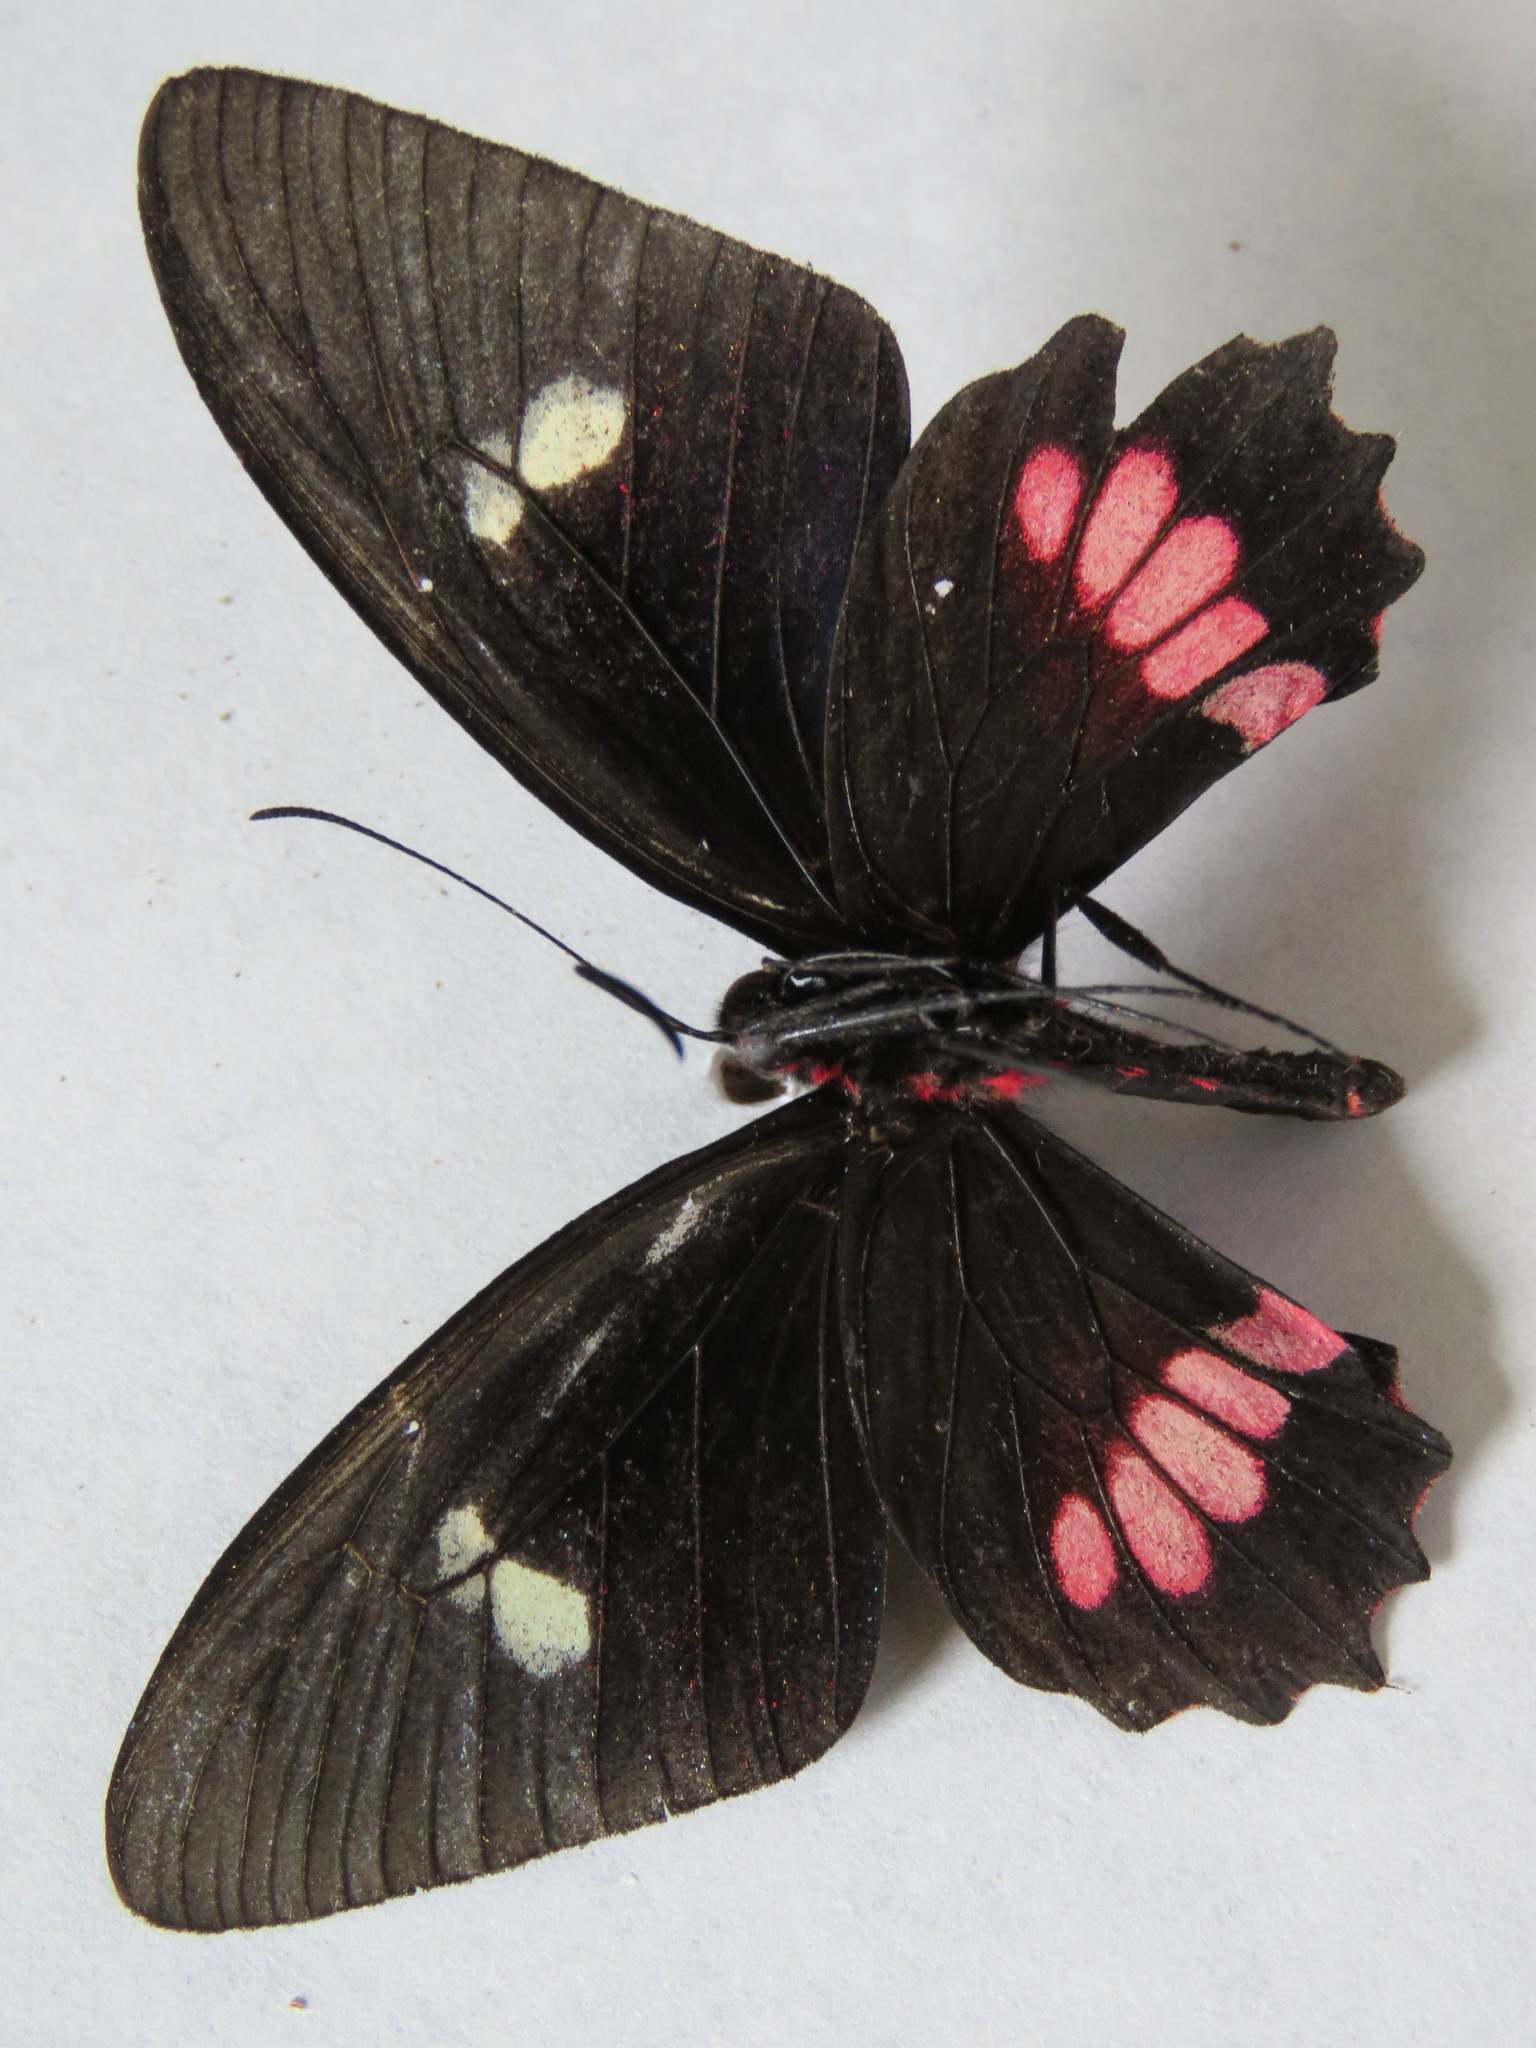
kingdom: Animalia
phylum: Arthropoda
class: Insecta
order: Lepidoptera
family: Papilionidae
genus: Parides
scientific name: Parides eurimedes
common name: True cattleheart
